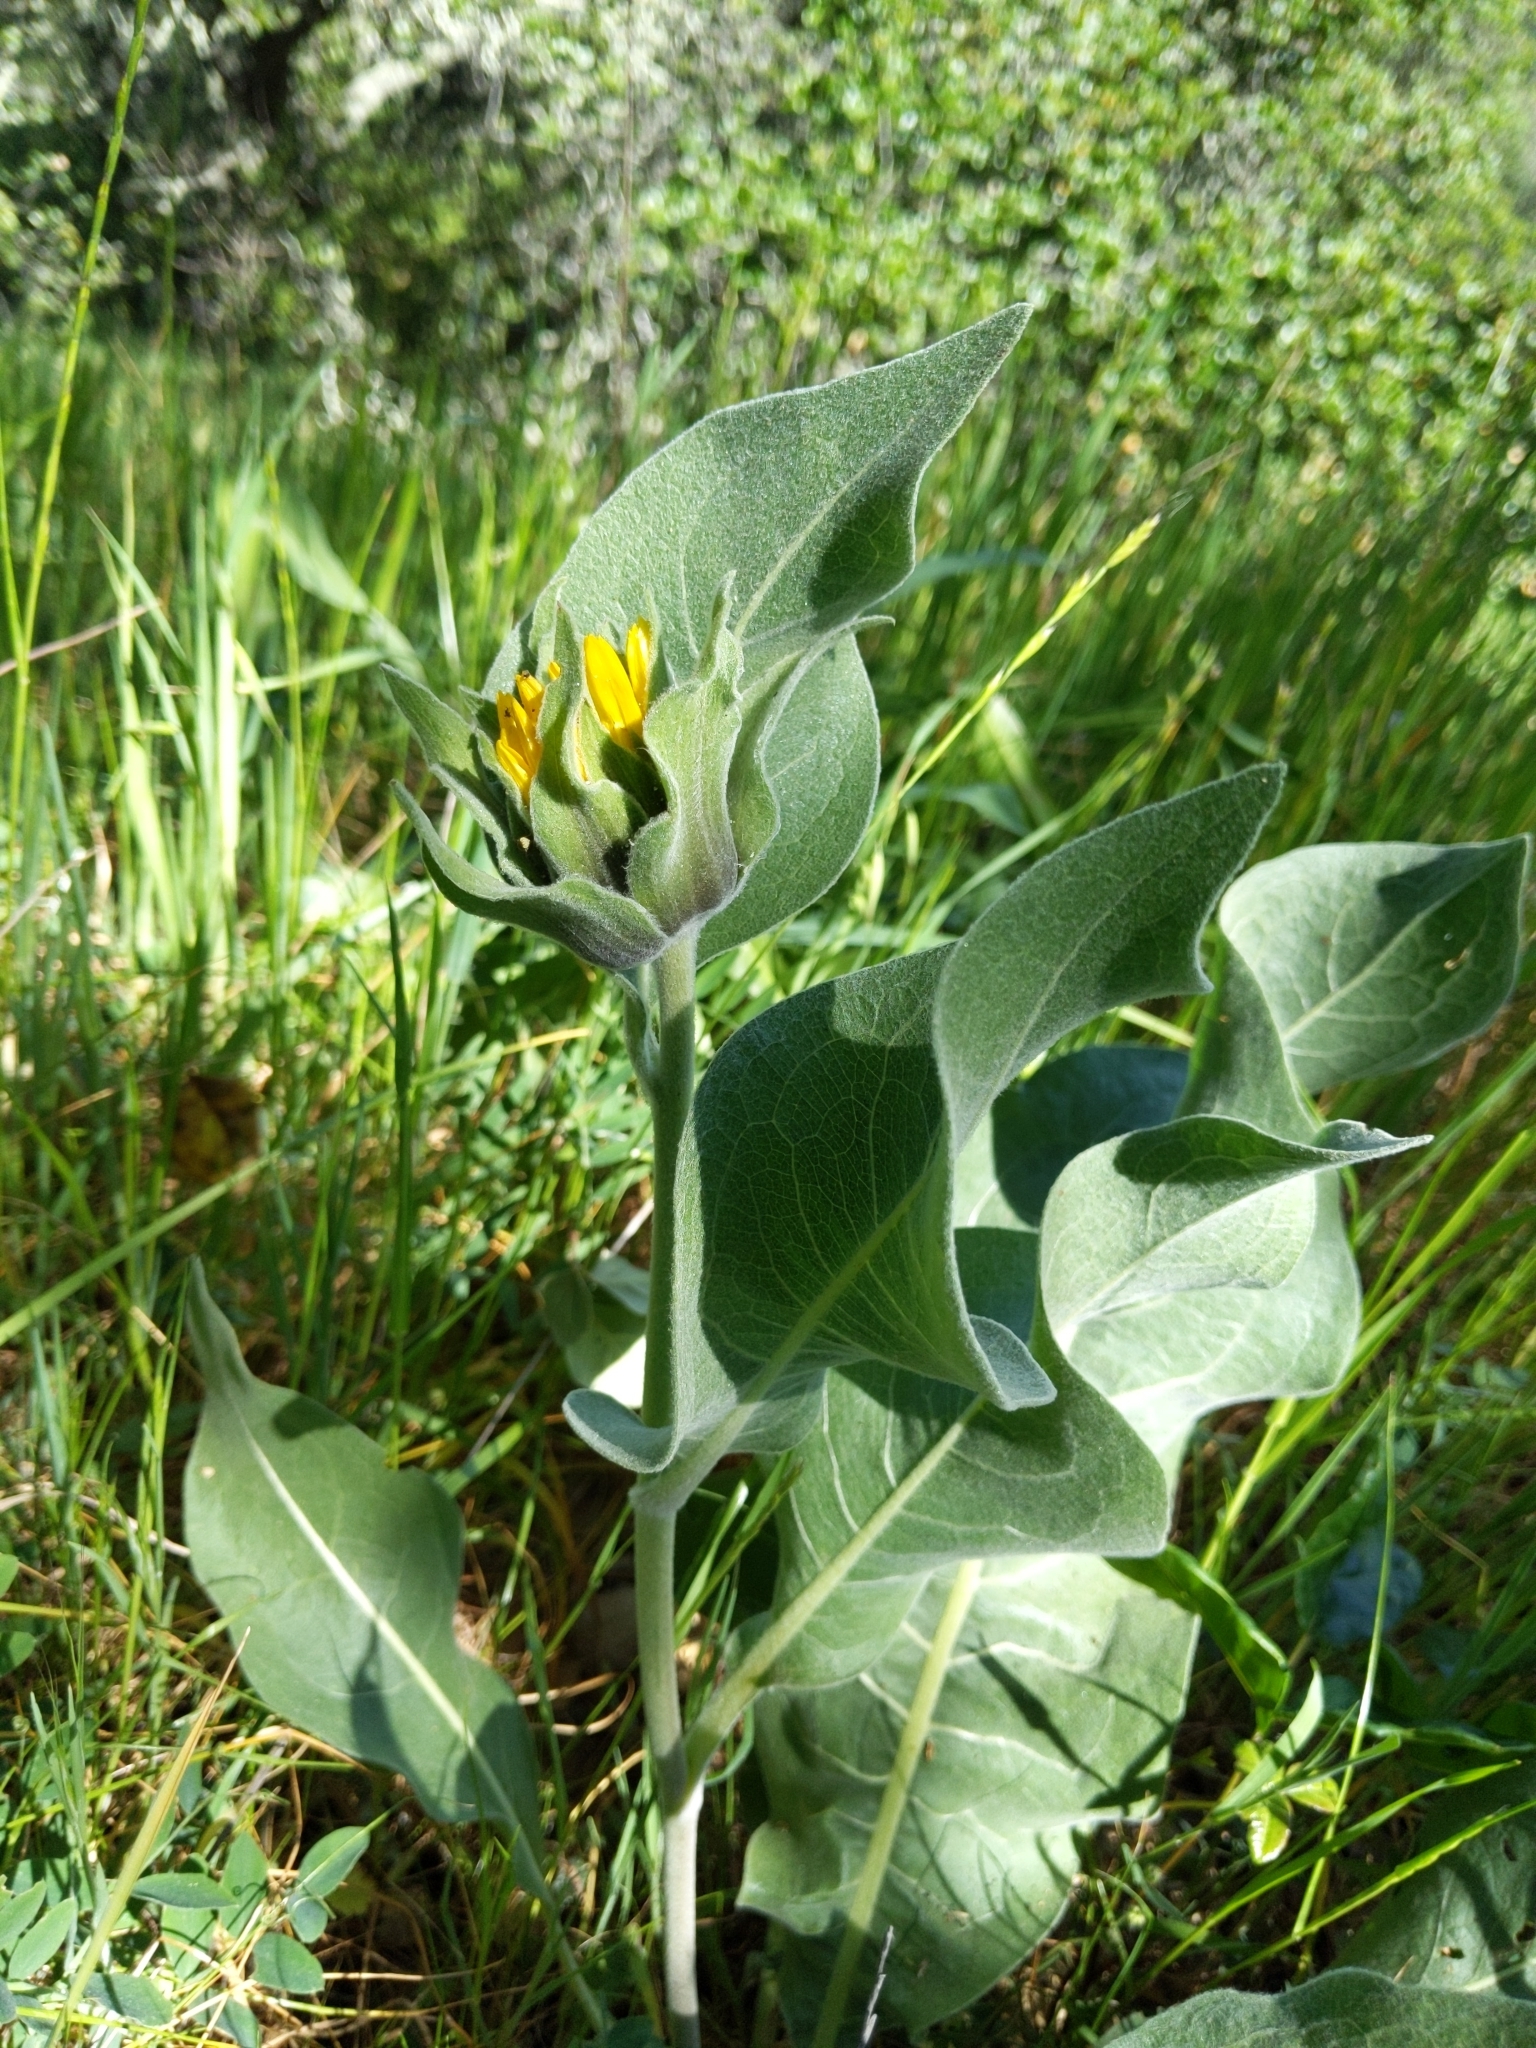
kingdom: Plantae
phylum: Tracheophyta
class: Magnoliopsida
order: Asterales
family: Asteraceae
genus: Wyethia
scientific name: Wyethia helenioides
